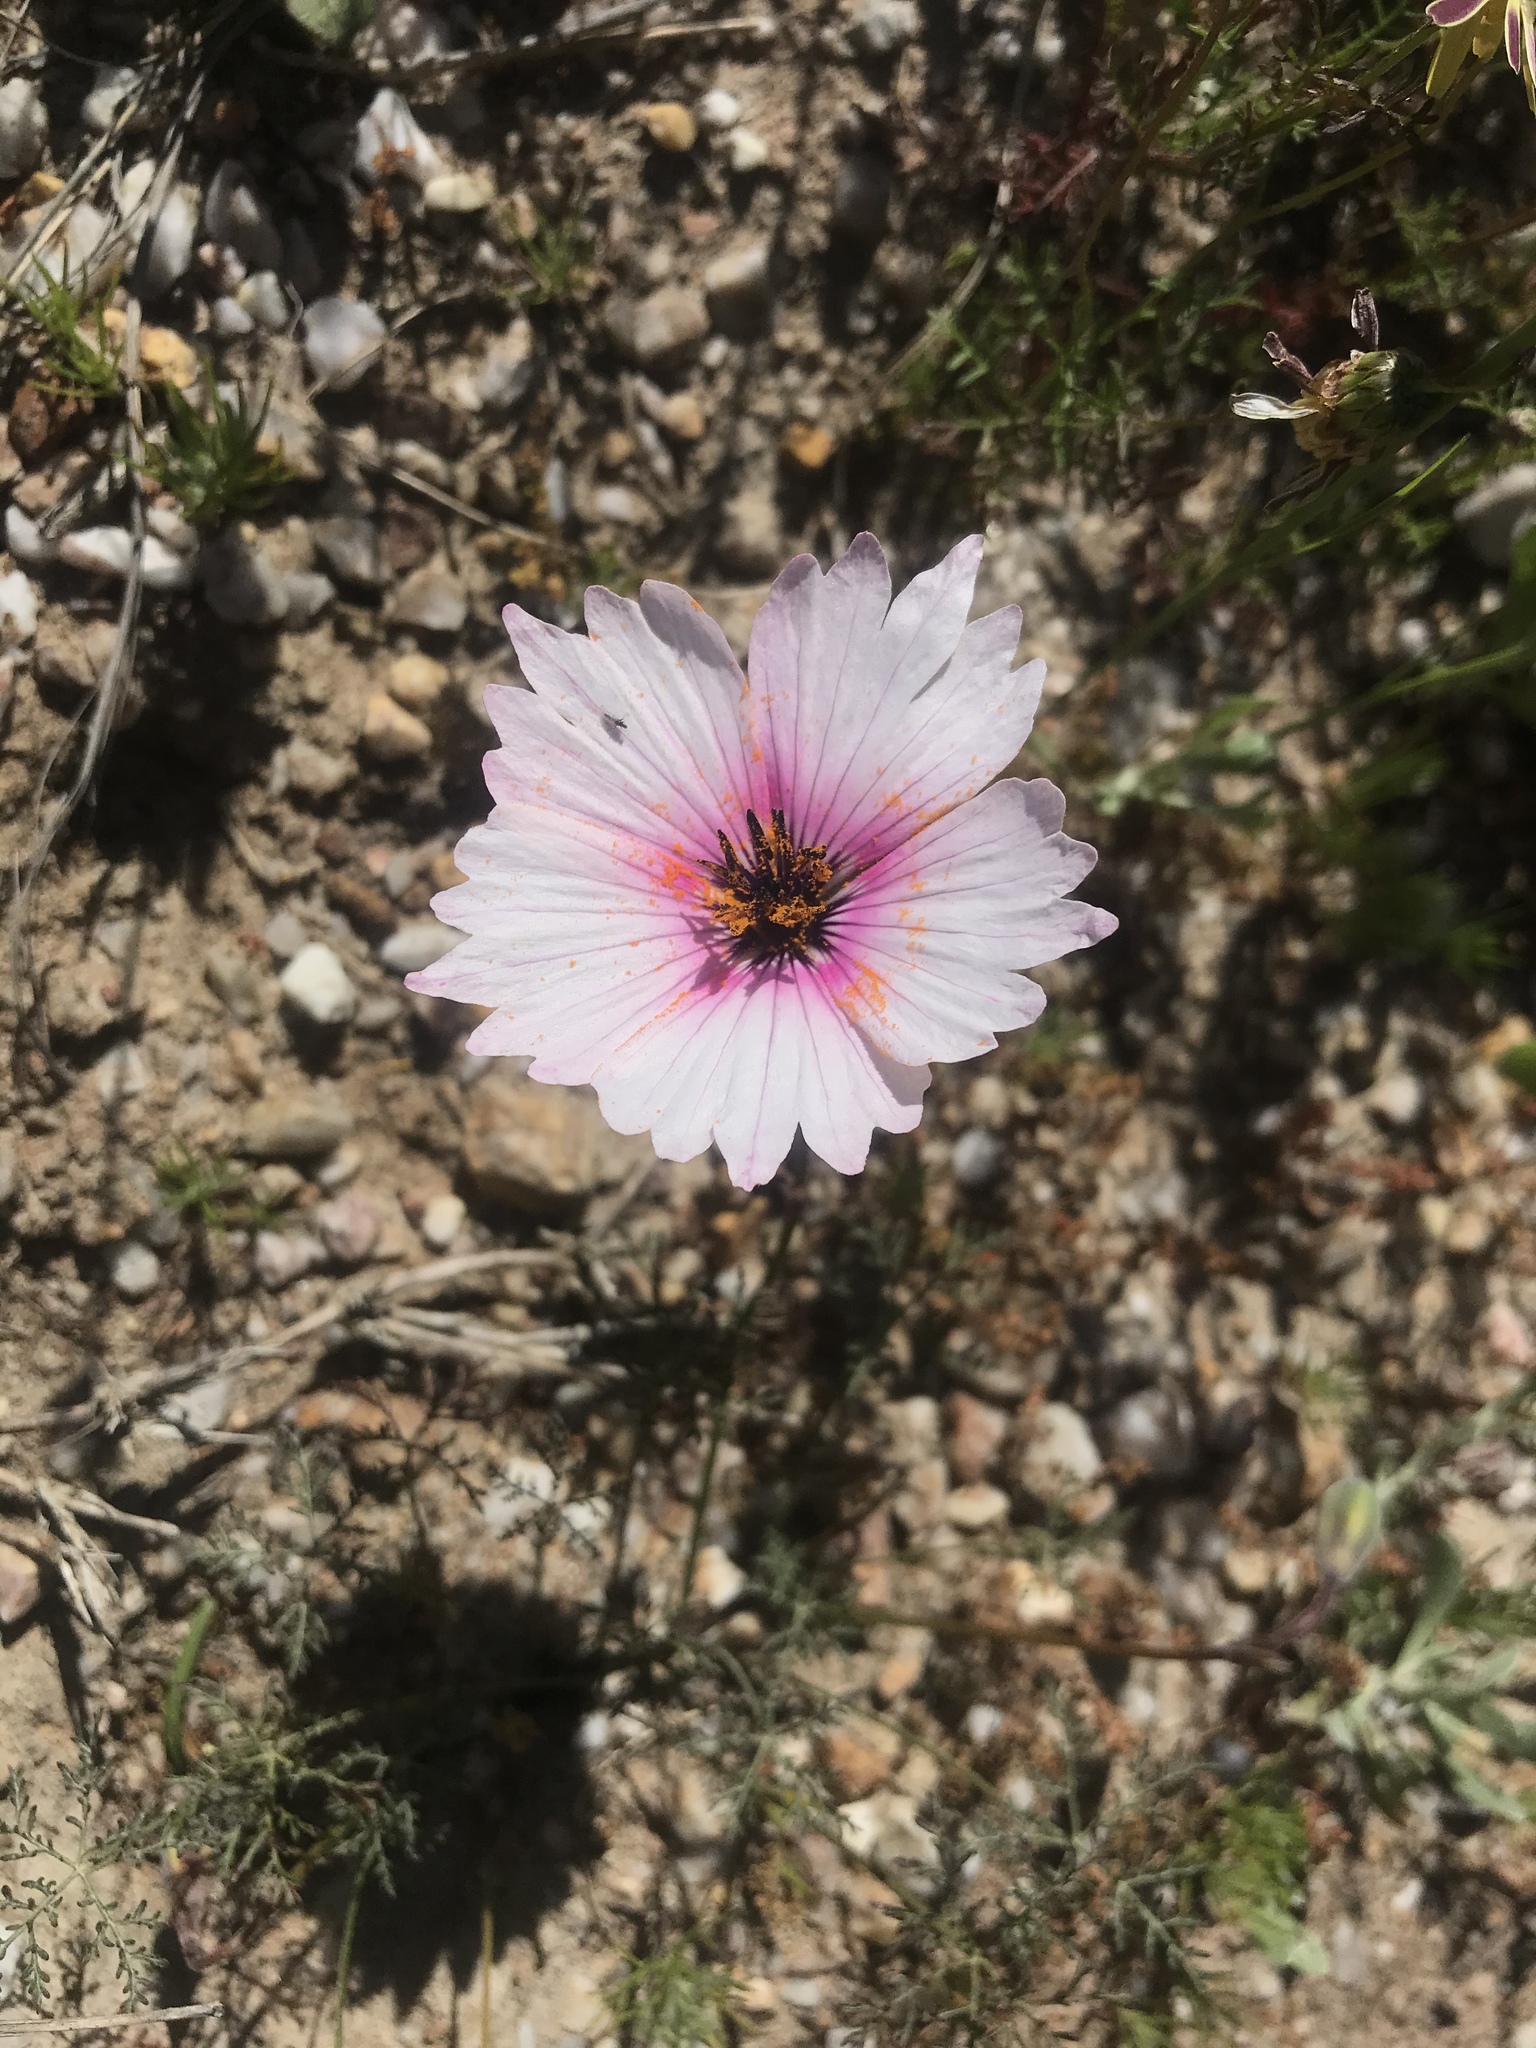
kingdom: Plantae
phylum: Tracheophyta
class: Magnoliopsida
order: Geraniales
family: Geraniaceae
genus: Monsonia
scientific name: Monsonia speciosa
